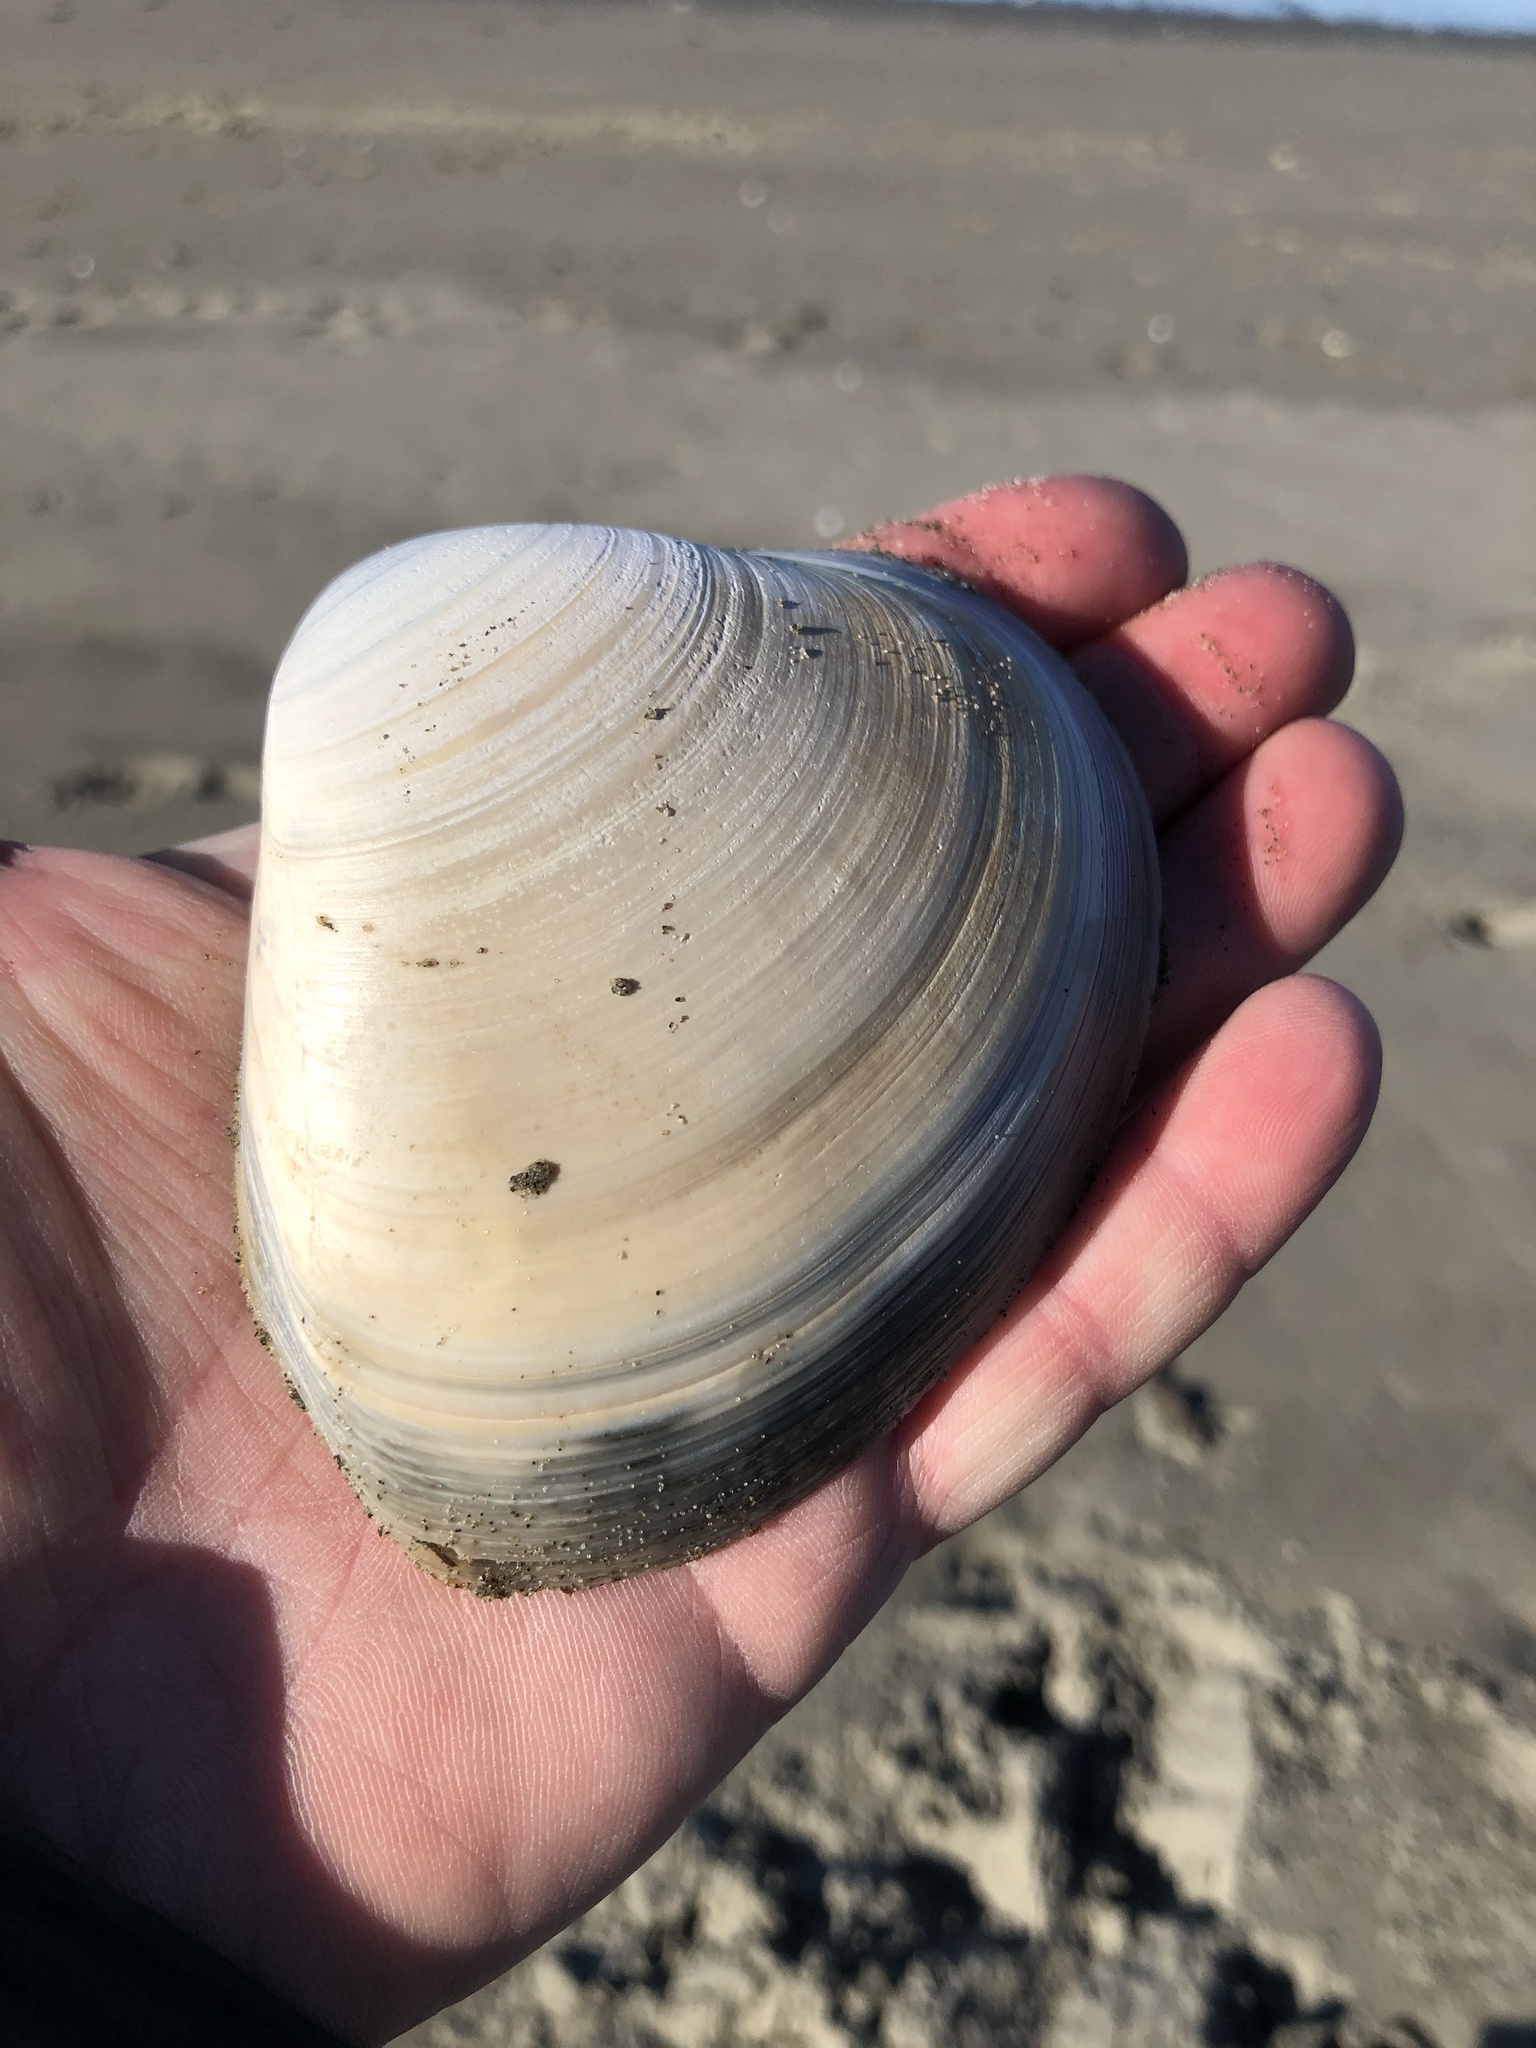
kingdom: Animalia
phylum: Mollusca
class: Bivalvia
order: Venerida
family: Mactridae
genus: Spisula
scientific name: Spisula murchisoni
